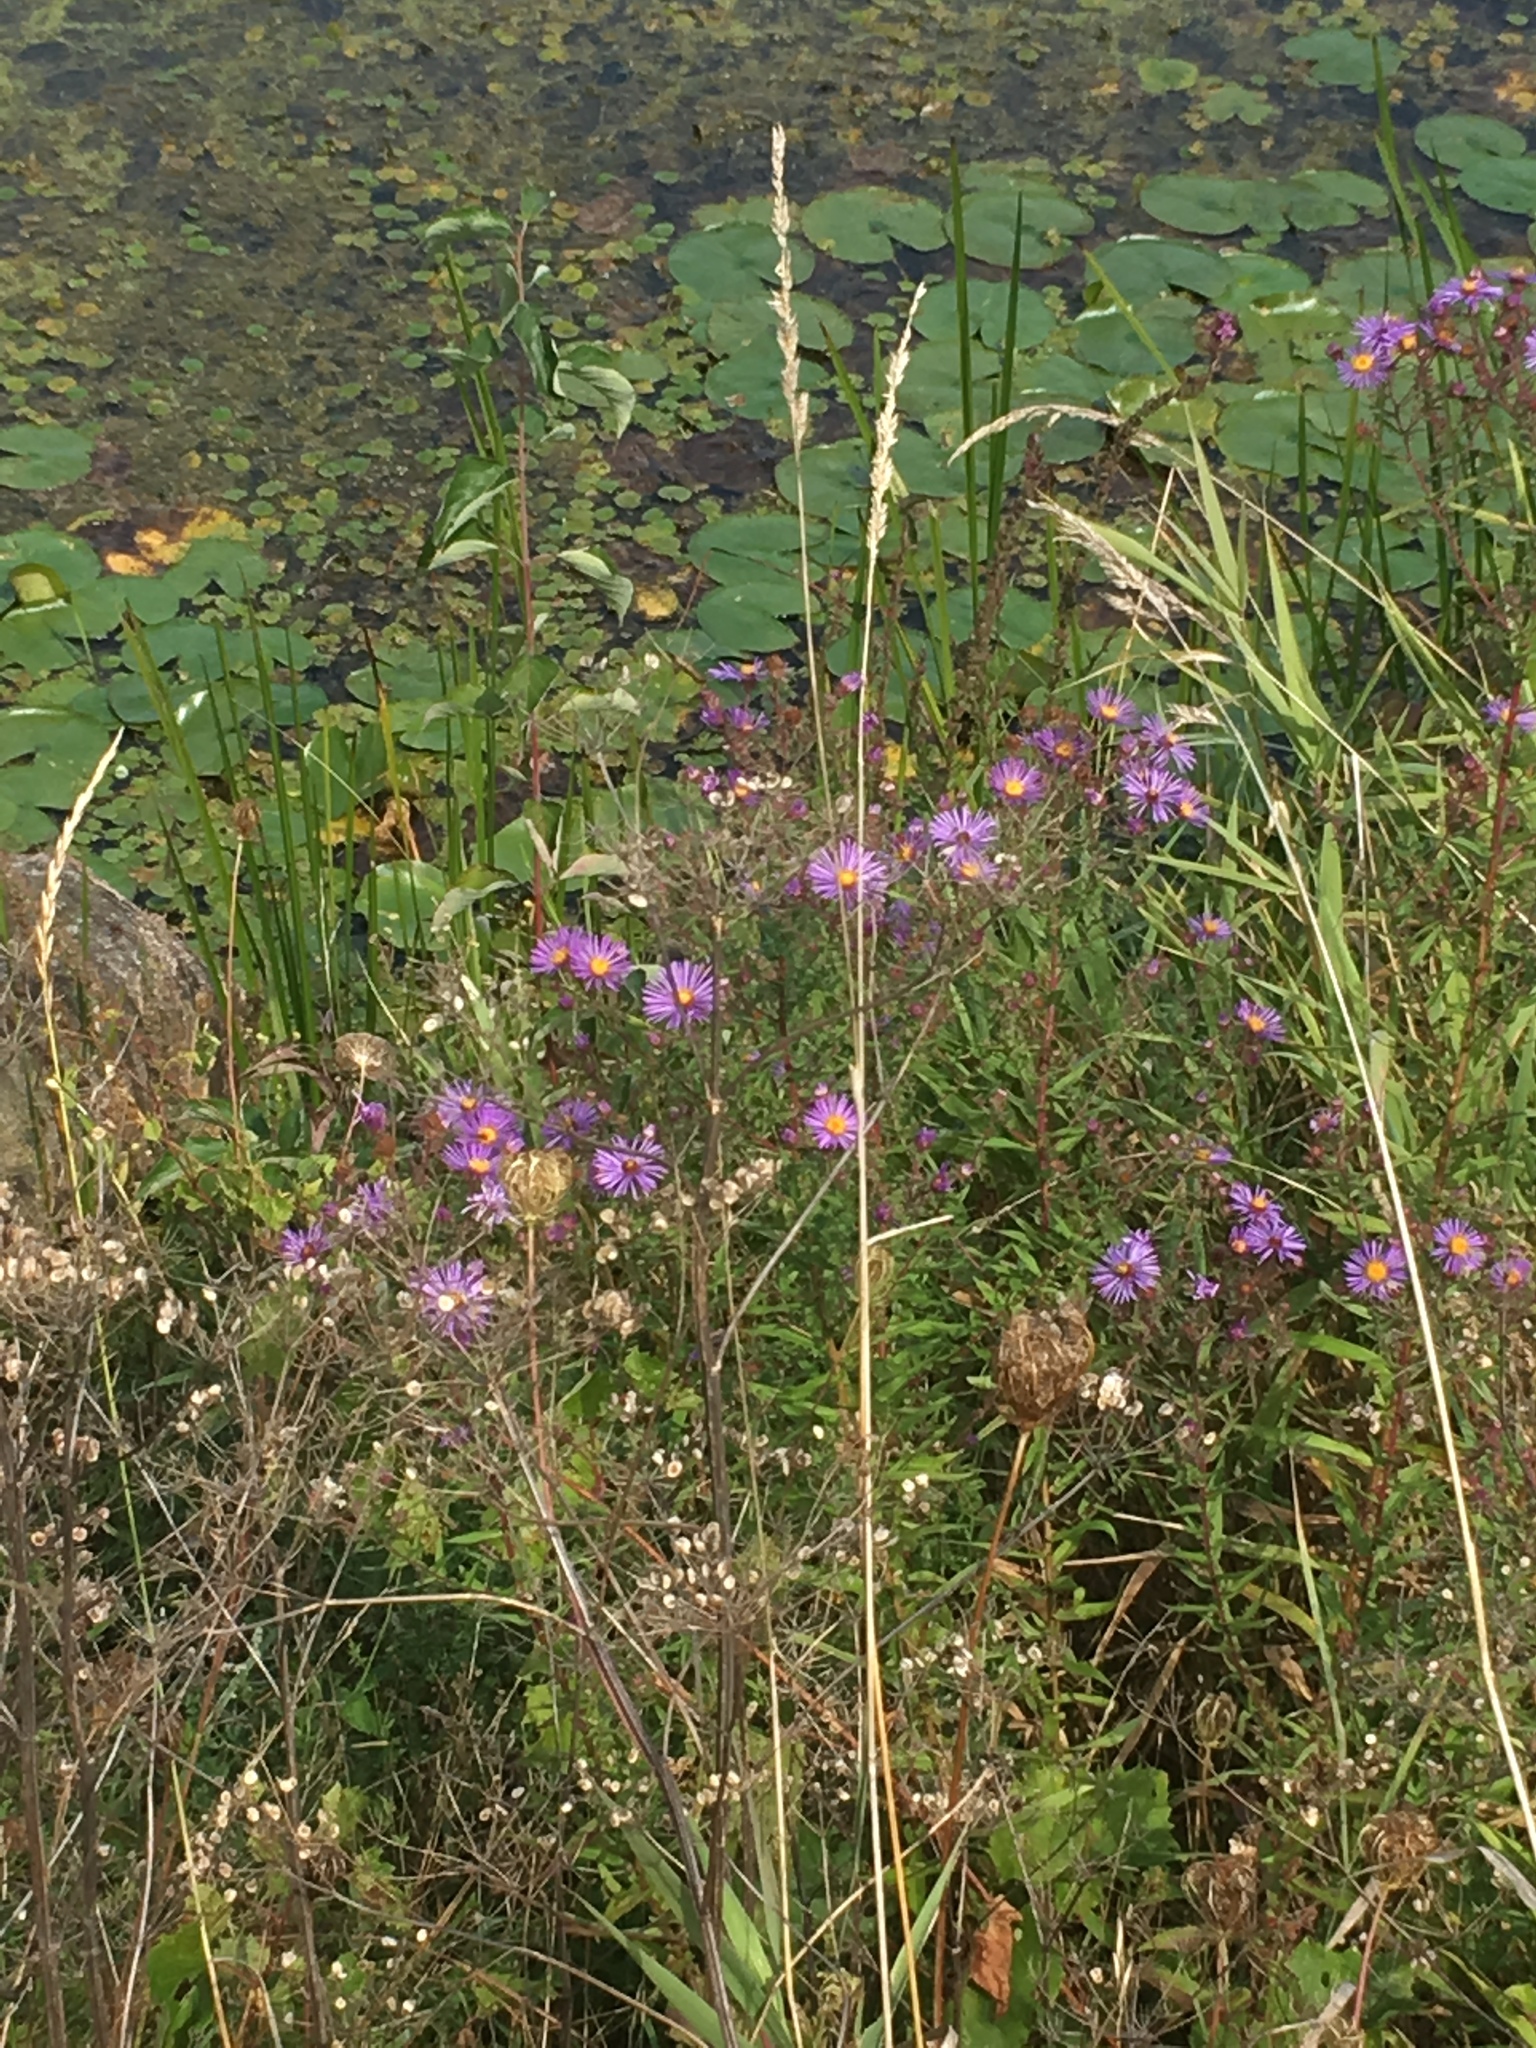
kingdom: Plantae
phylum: Tracheophyta
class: Magnoliopsida
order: Asterales
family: Asteraceae
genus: Symphyotrichum
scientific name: Symphyotrichum novae-angliae
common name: Michaelmas daisy
